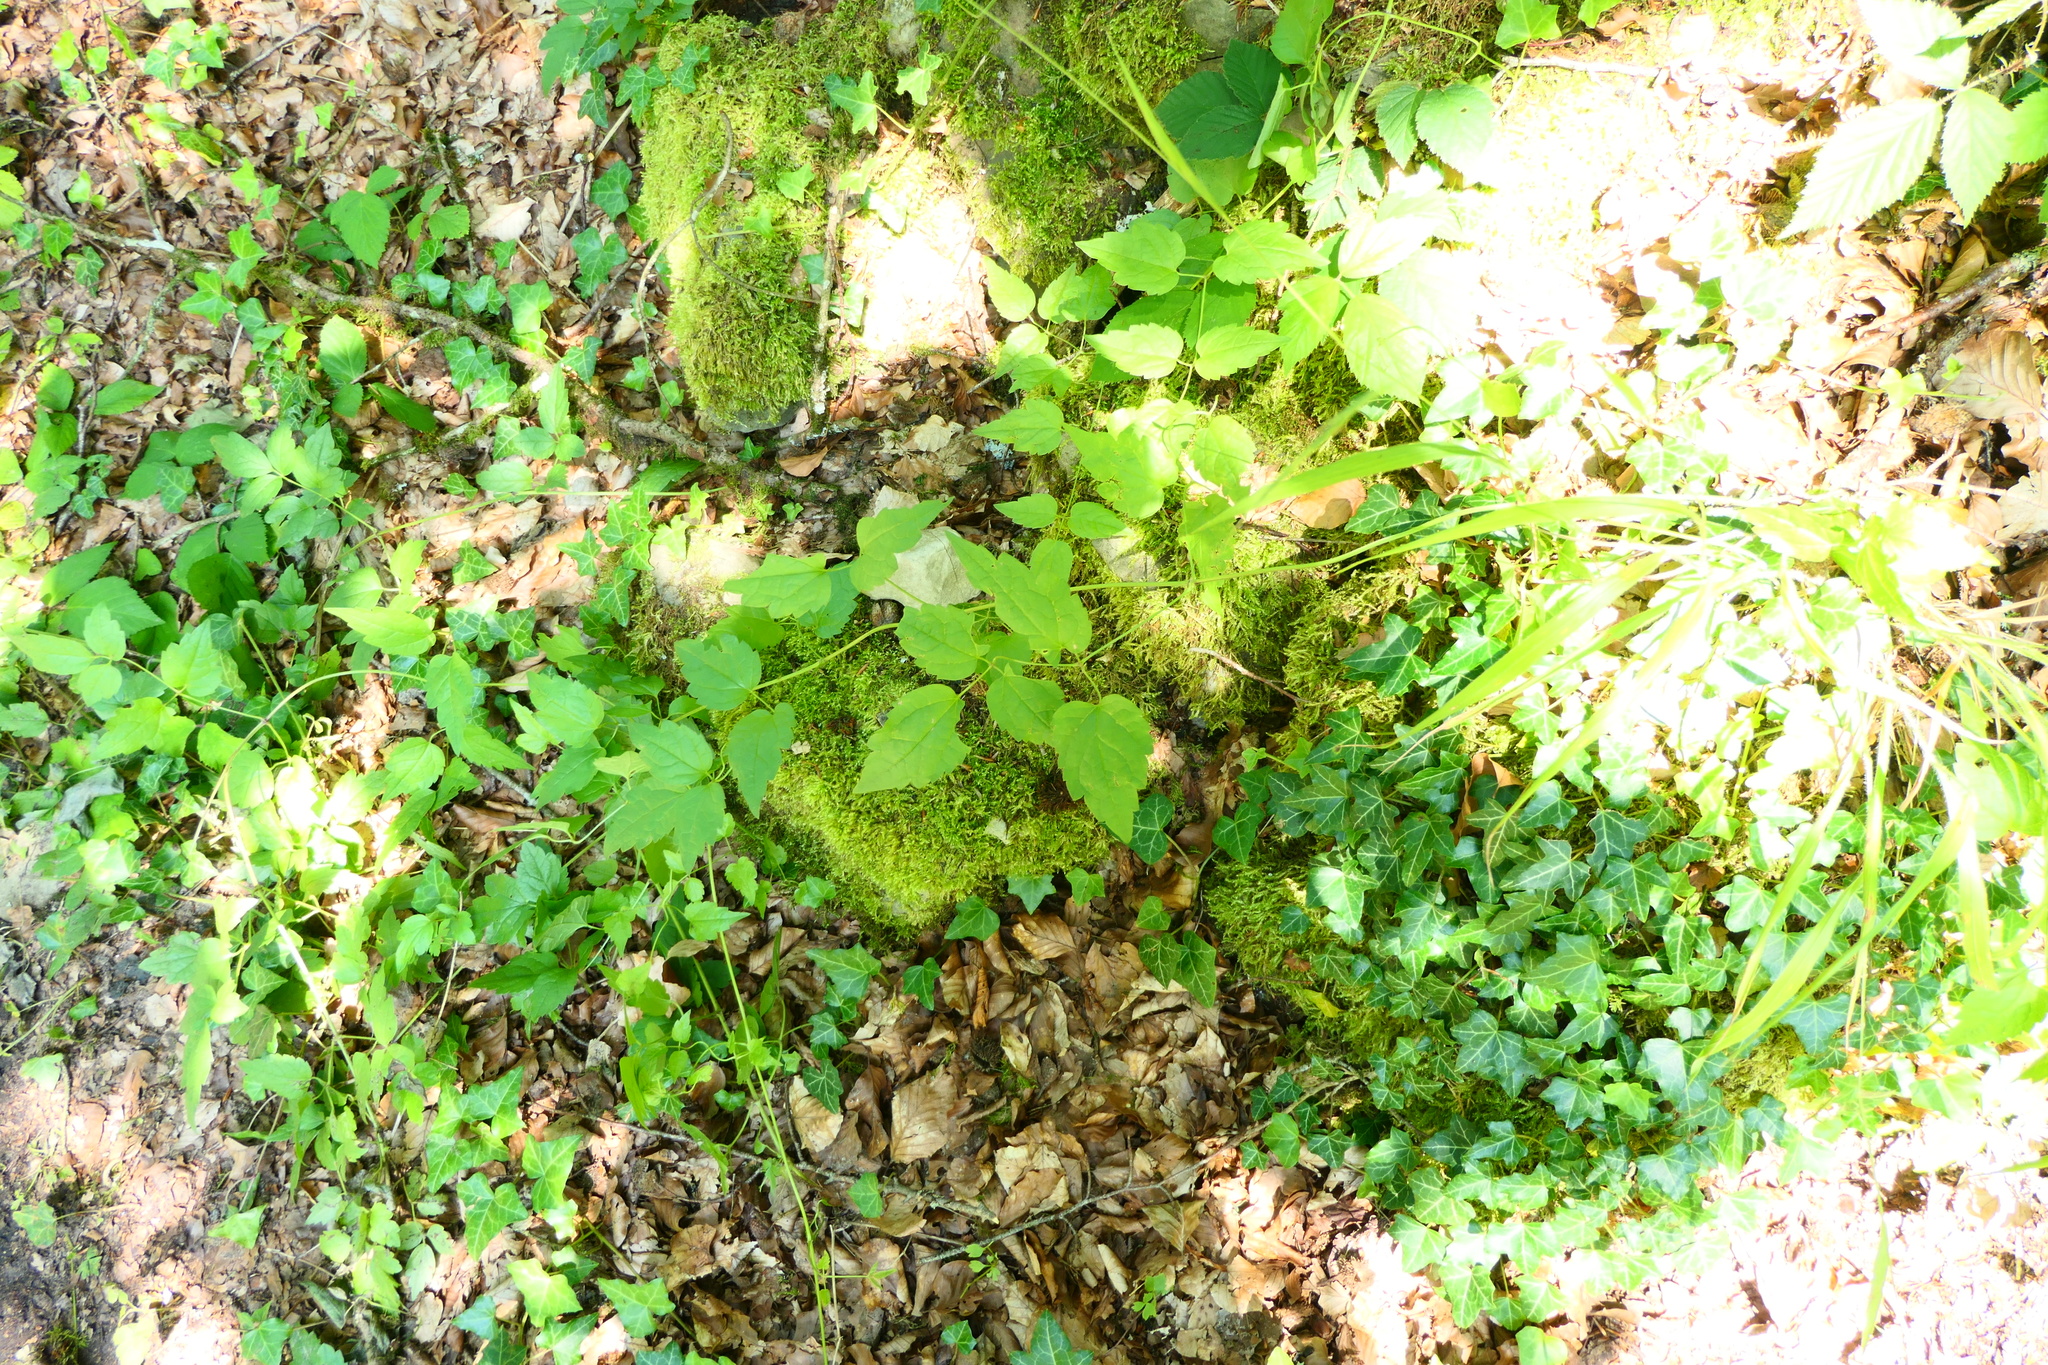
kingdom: Plantae
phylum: Tracheophyta
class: Magnoliopsida
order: Ranunculales
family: Ranunculaceae
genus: Clematis
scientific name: Clematis vitalba
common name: Evergreen clematis
